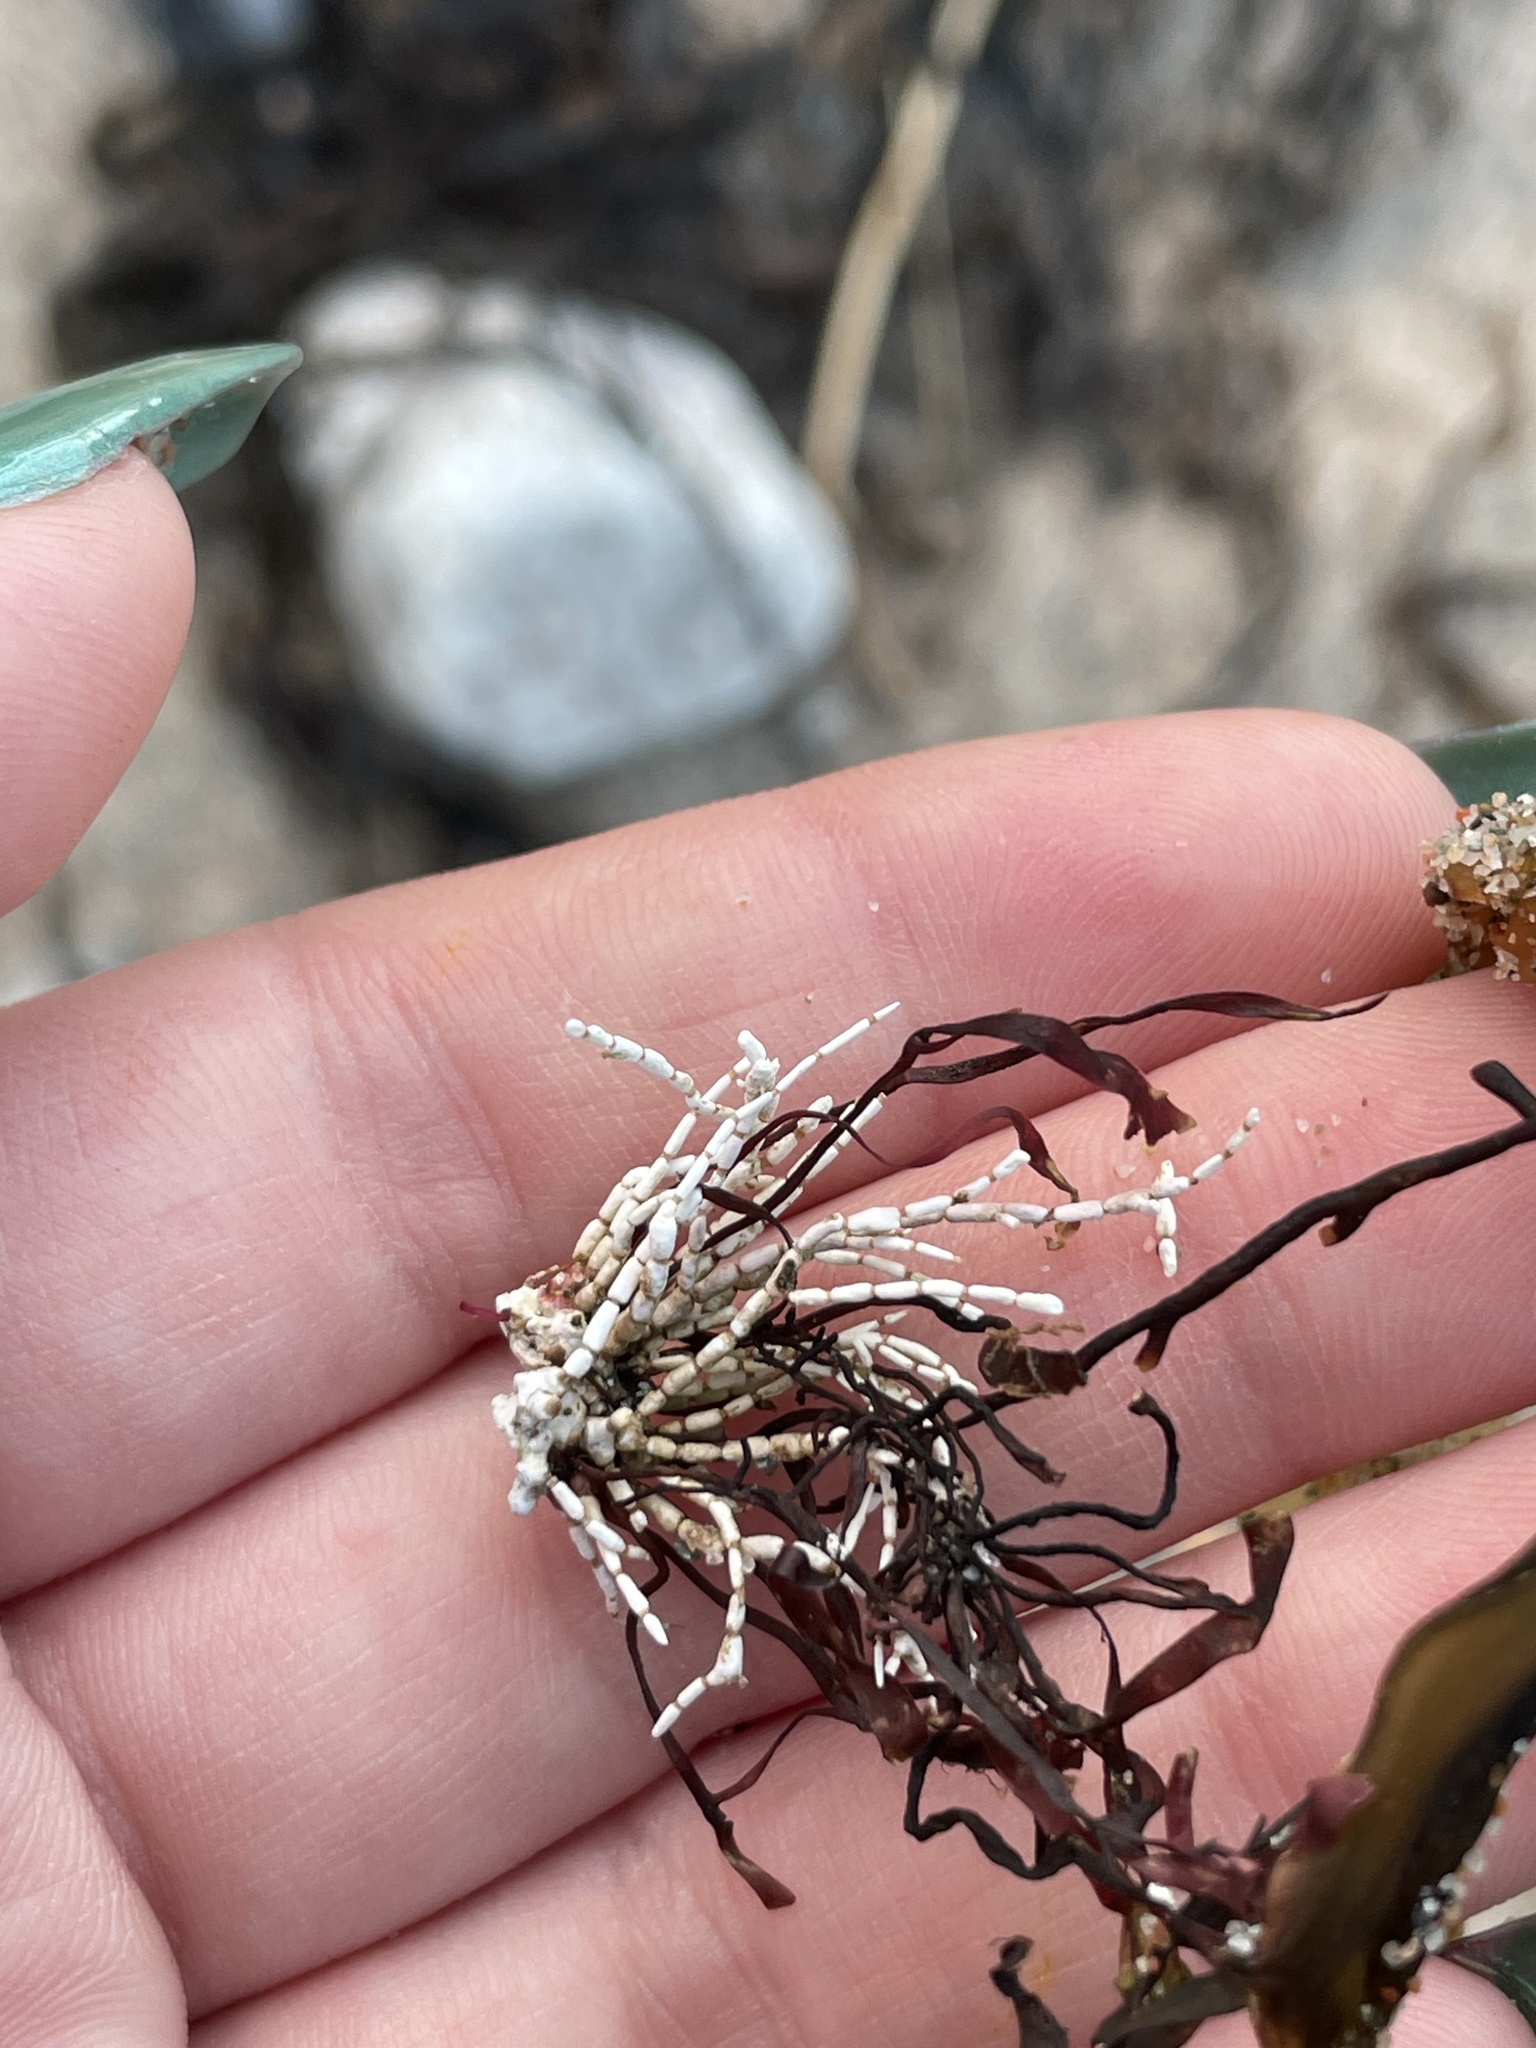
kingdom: Plantae
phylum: Rhodophyta
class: Florideophyceae
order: Corallinales
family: Corallinaceae
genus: Corallina
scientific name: Corallina officinalis
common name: Coral weed
